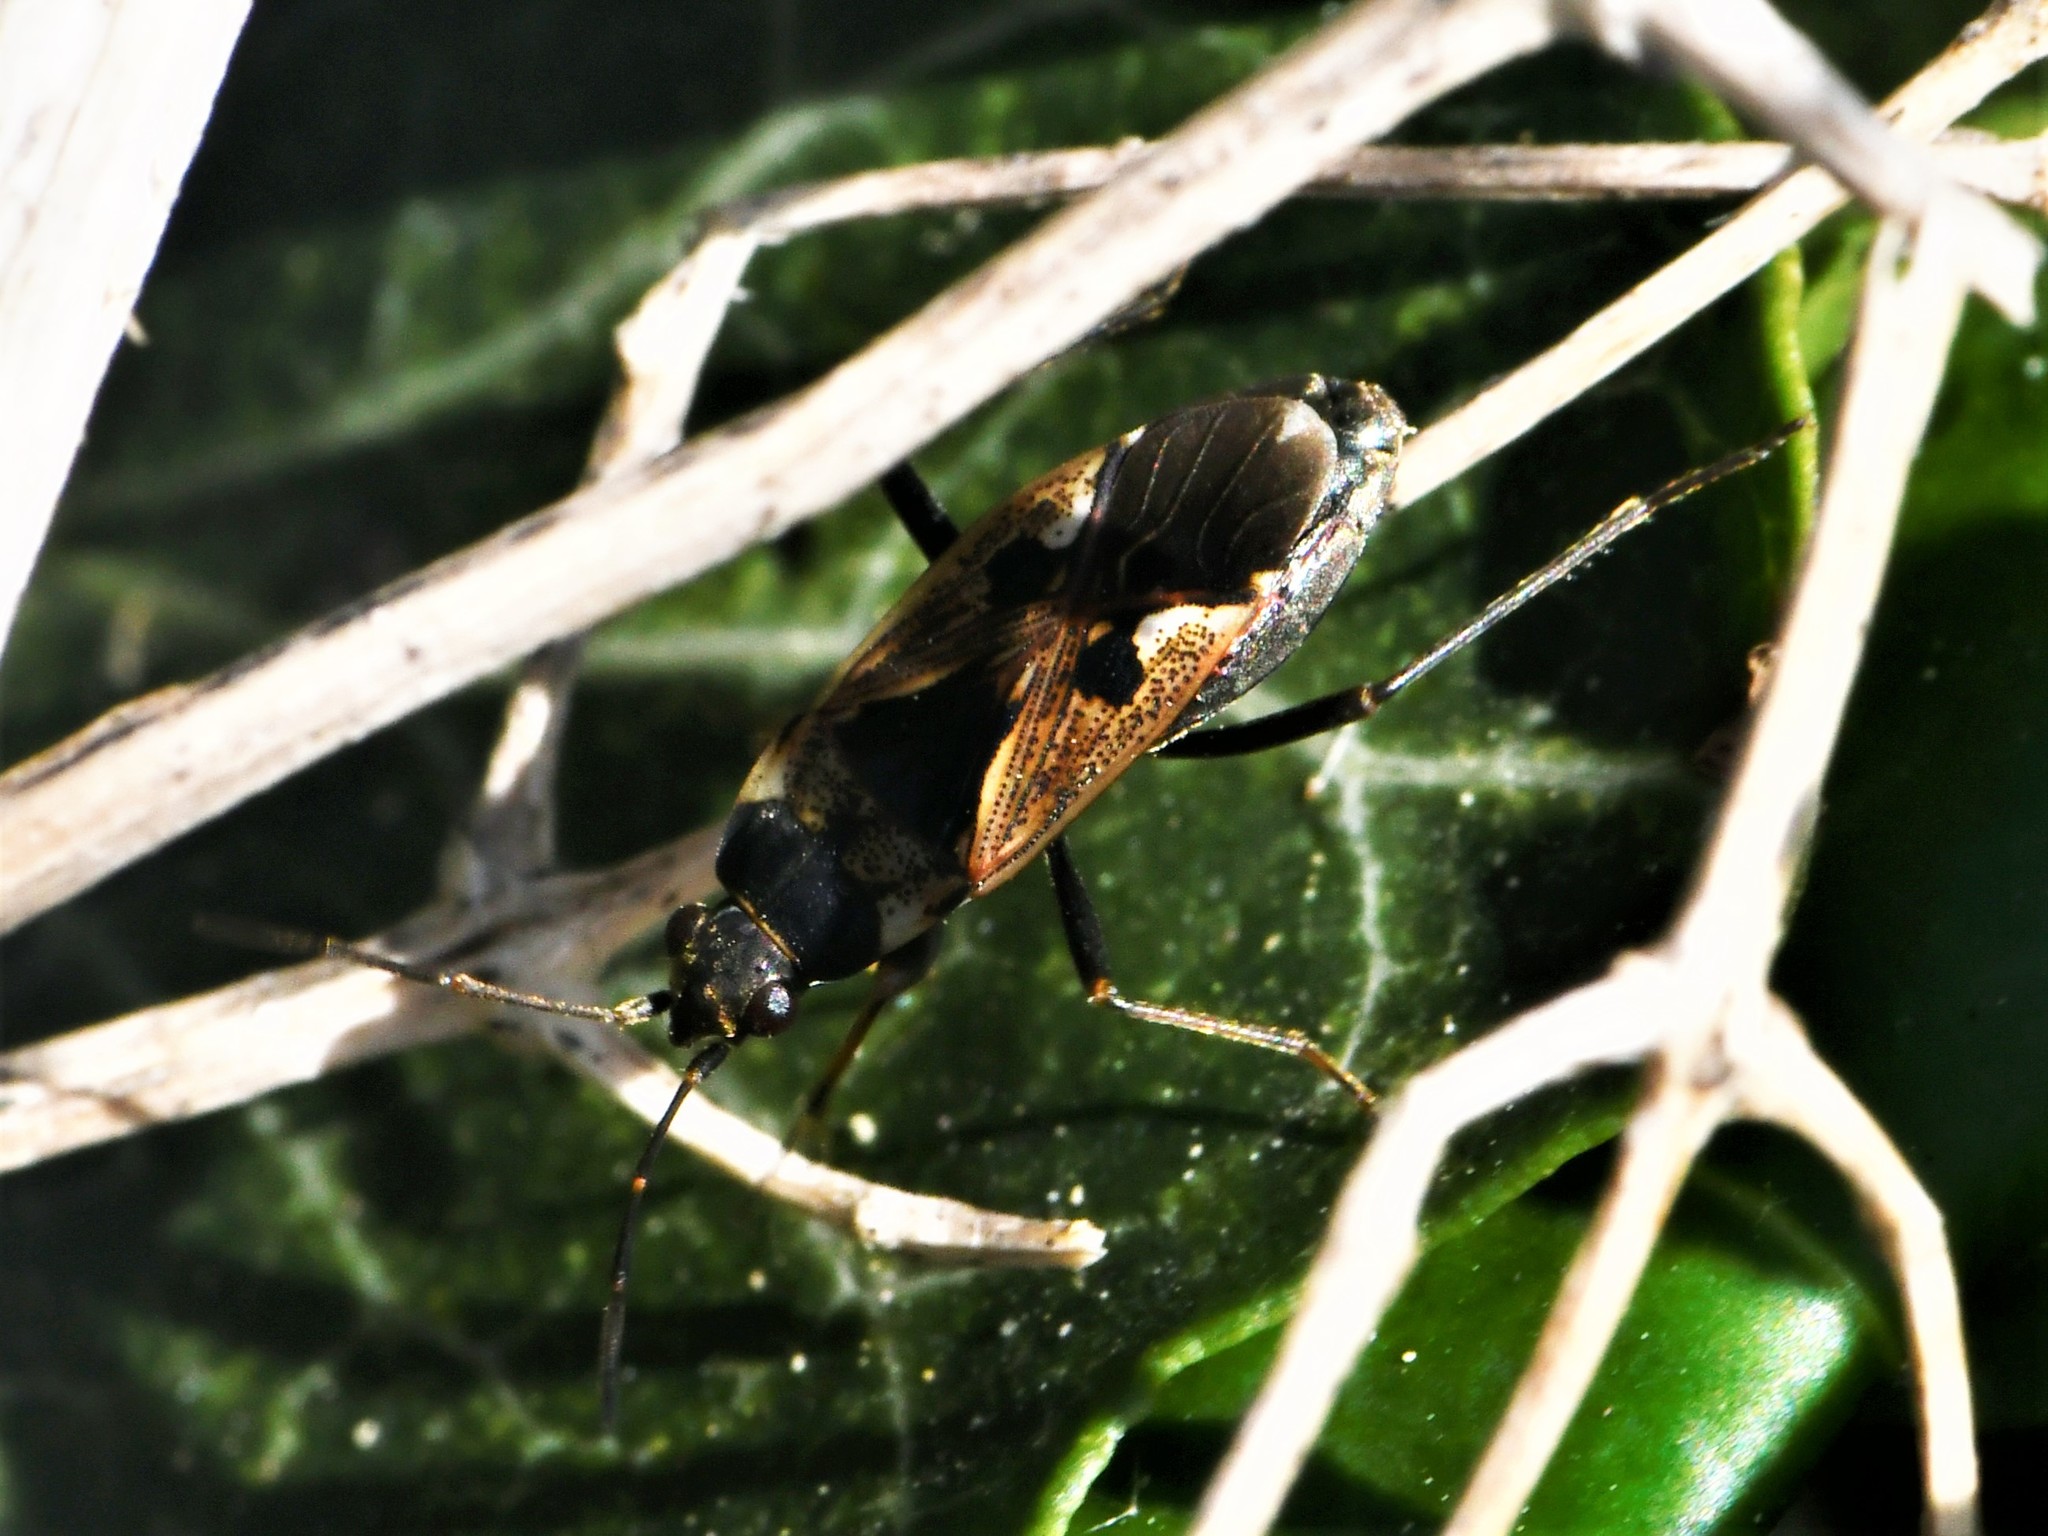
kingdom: Animalia
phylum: Arthropoda
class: Insecta
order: Hemiptera
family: Rhyparochromidae
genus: Rhyparochromus
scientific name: Rhyparochromus vulgaris
